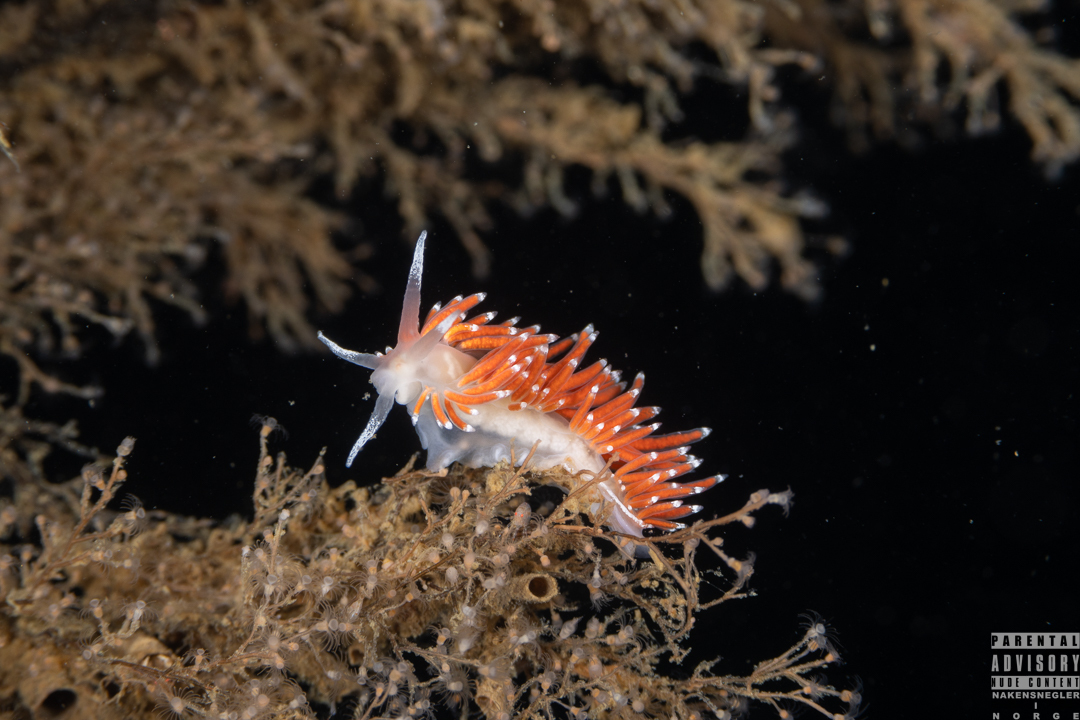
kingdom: Animalia
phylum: Mollusca
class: Gastropoda
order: Nudibranchia
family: Coryphellidae
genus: Coryphella
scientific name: Coryphella gracilis
